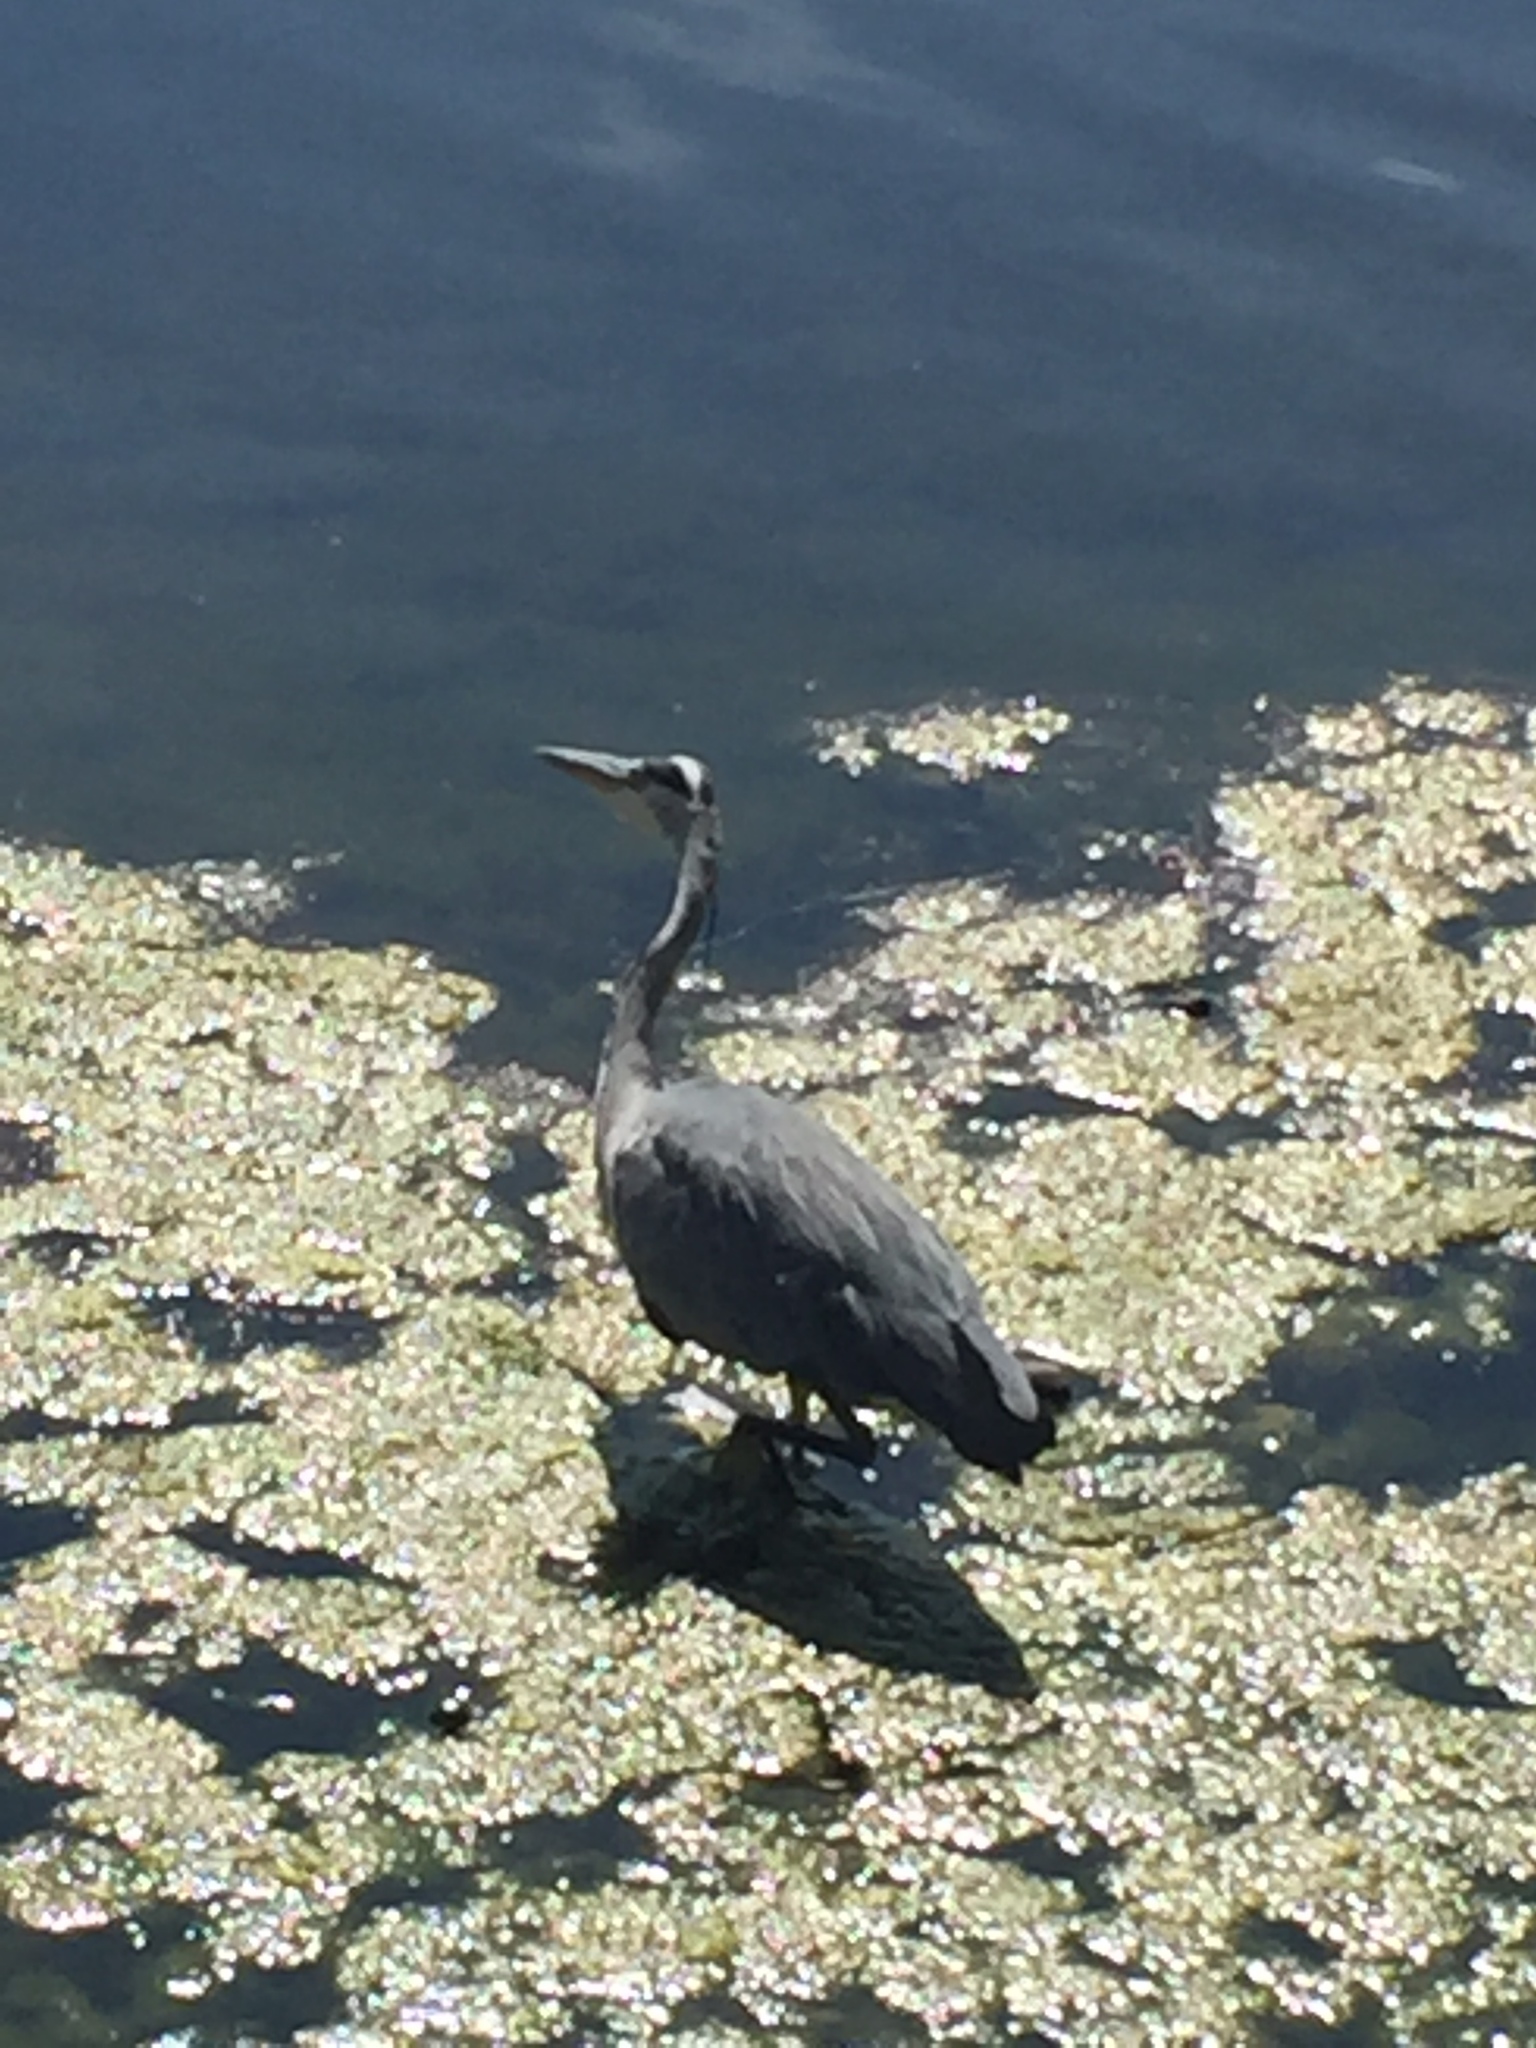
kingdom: Animalia
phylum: Chordata
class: Aves
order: Pelecaniformes
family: Ardeidae
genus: Ardea
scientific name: Ardea cinerea
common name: Grey heron
